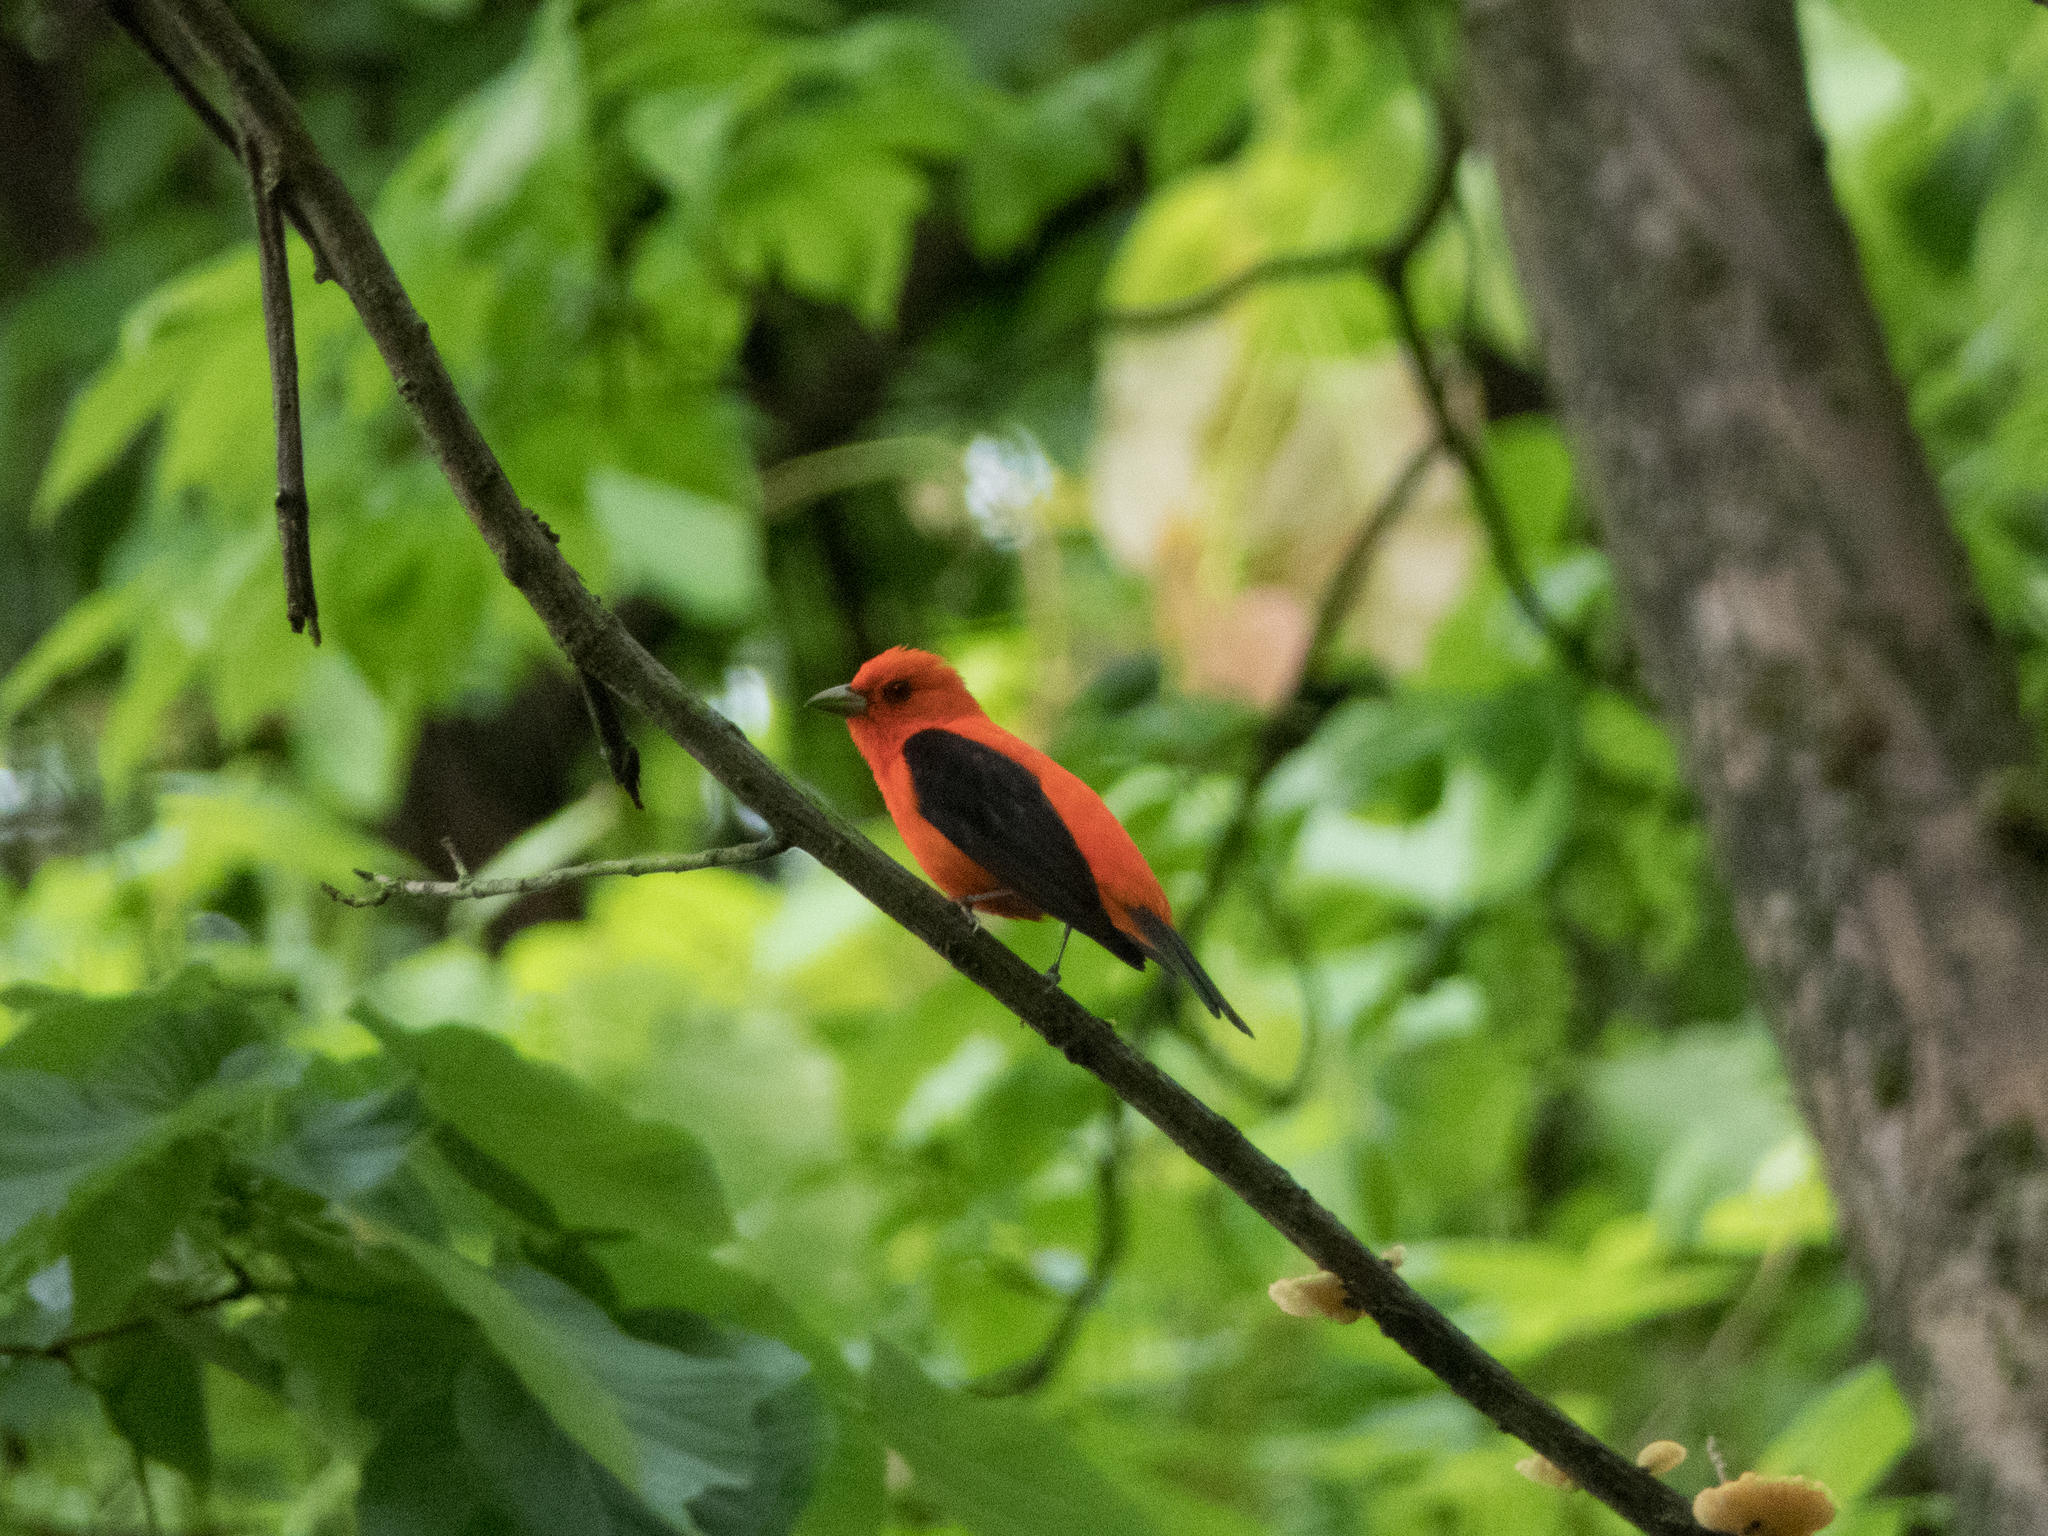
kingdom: Animalia
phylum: Chordata
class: Aves
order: Passeriformes
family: Cardinalidae
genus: Piranga
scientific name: Piranga olivacea
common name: Scarlet tanager
